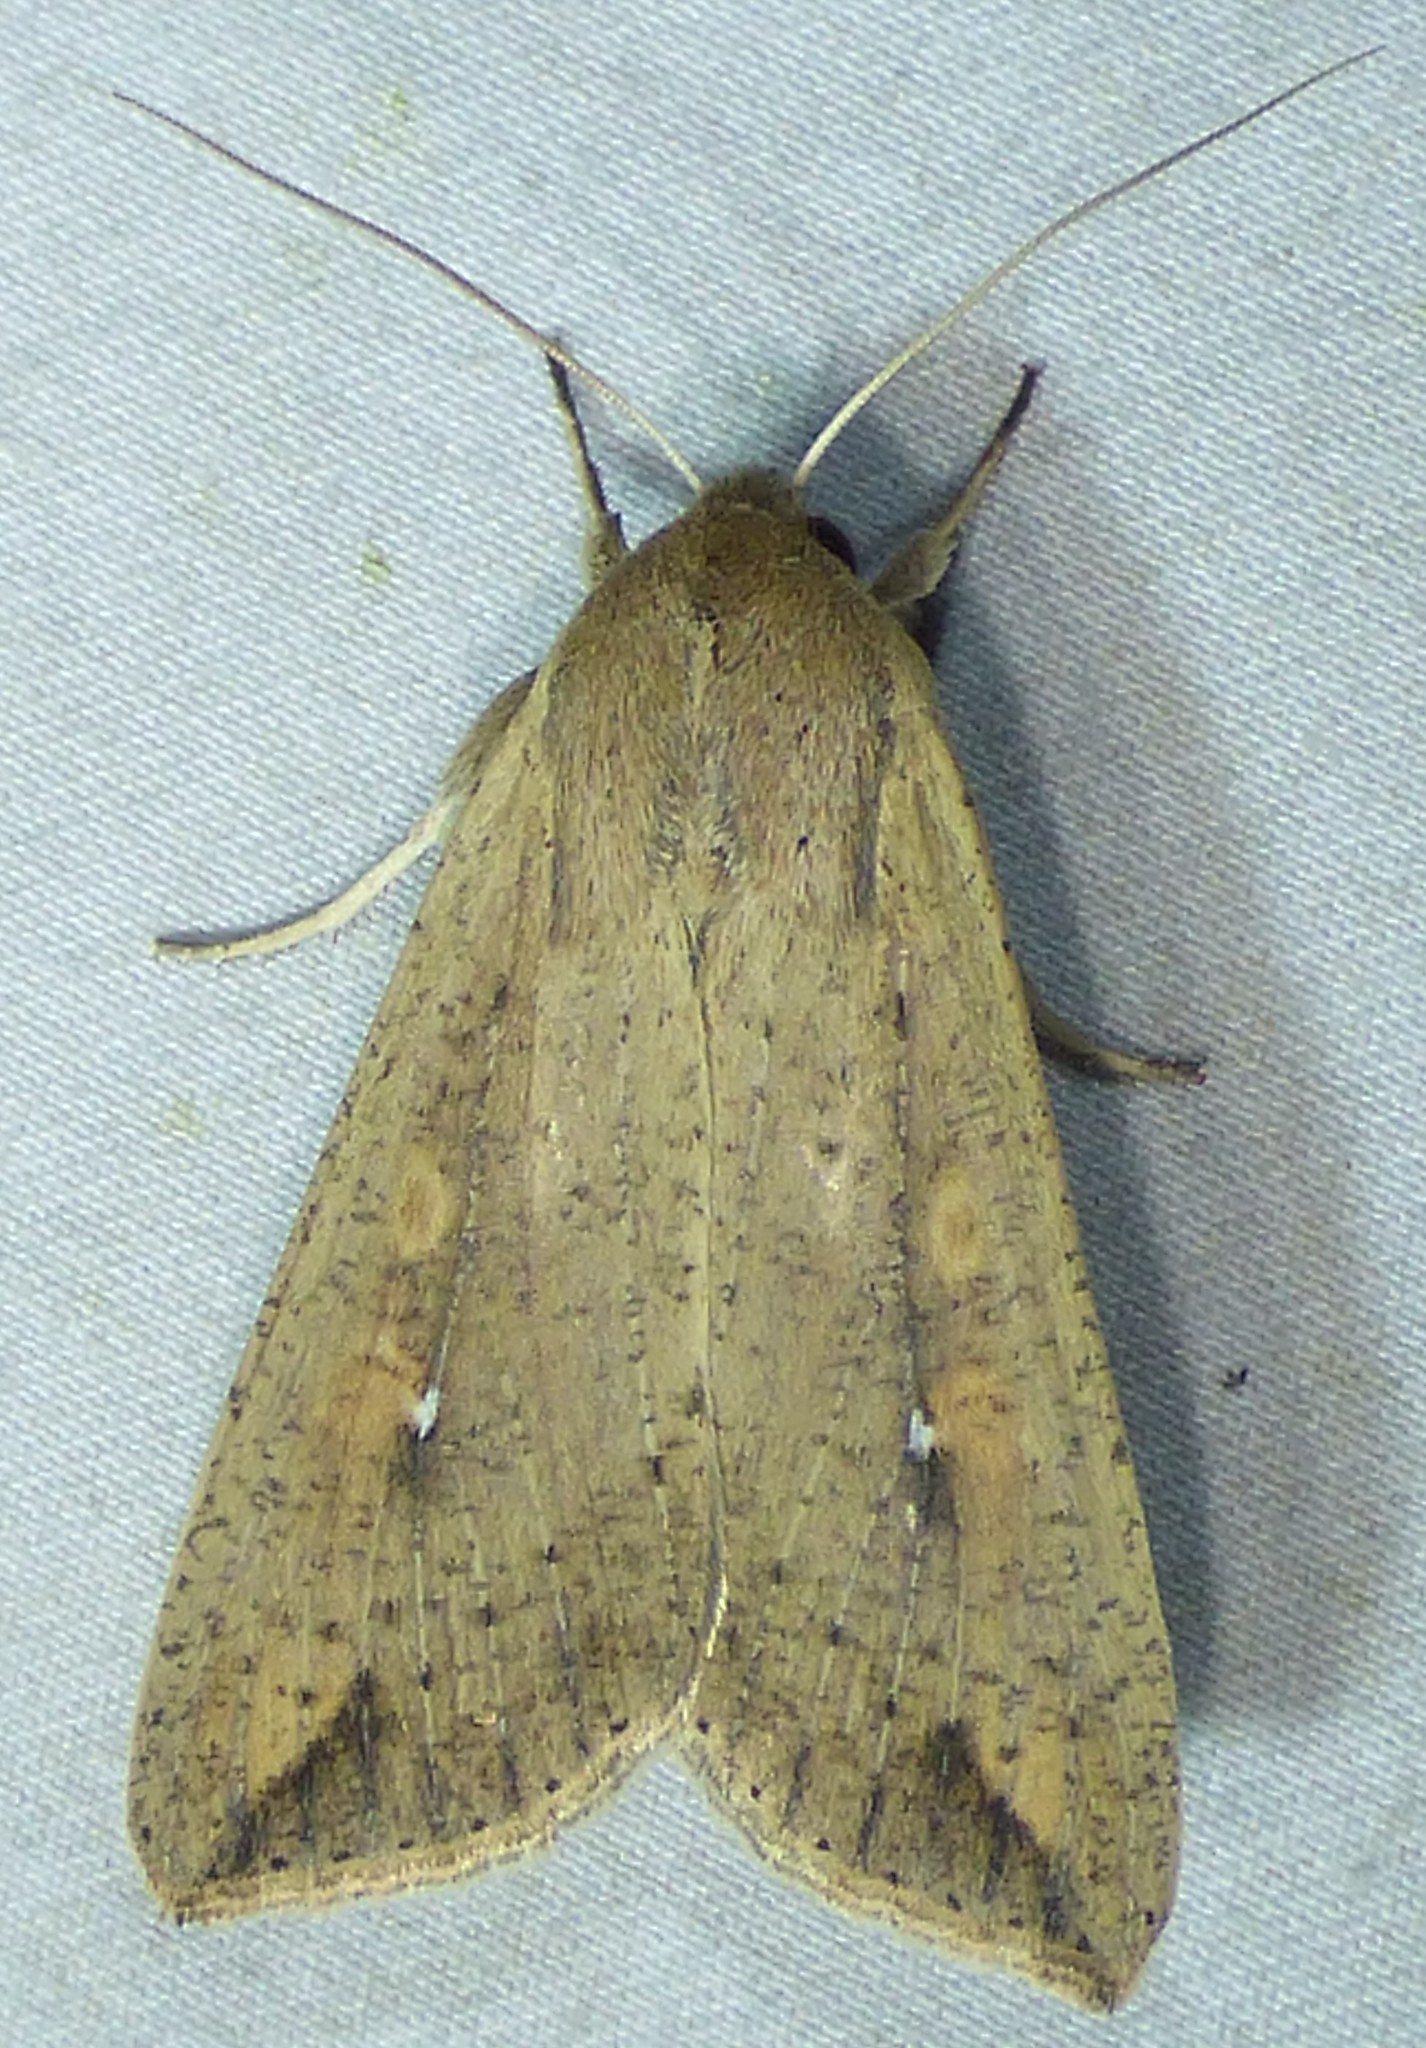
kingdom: Animalia
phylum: Arthropoda
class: Insecta
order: Lepidoptera
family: Noctuidae
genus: Mythimna
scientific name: Mythimna unipuncta
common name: White-speck
